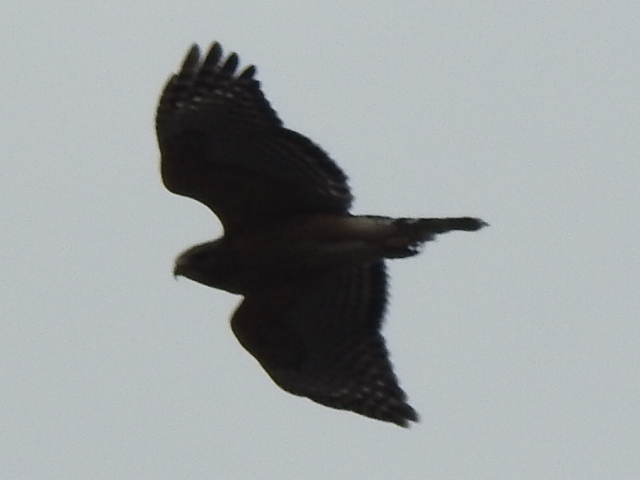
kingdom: Animalia
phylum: Chordata
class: Aves
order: Accipitriformes
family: Accipitridae
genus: Buteo
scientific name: Buteo lineatus
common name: Red-shouldered hawk
